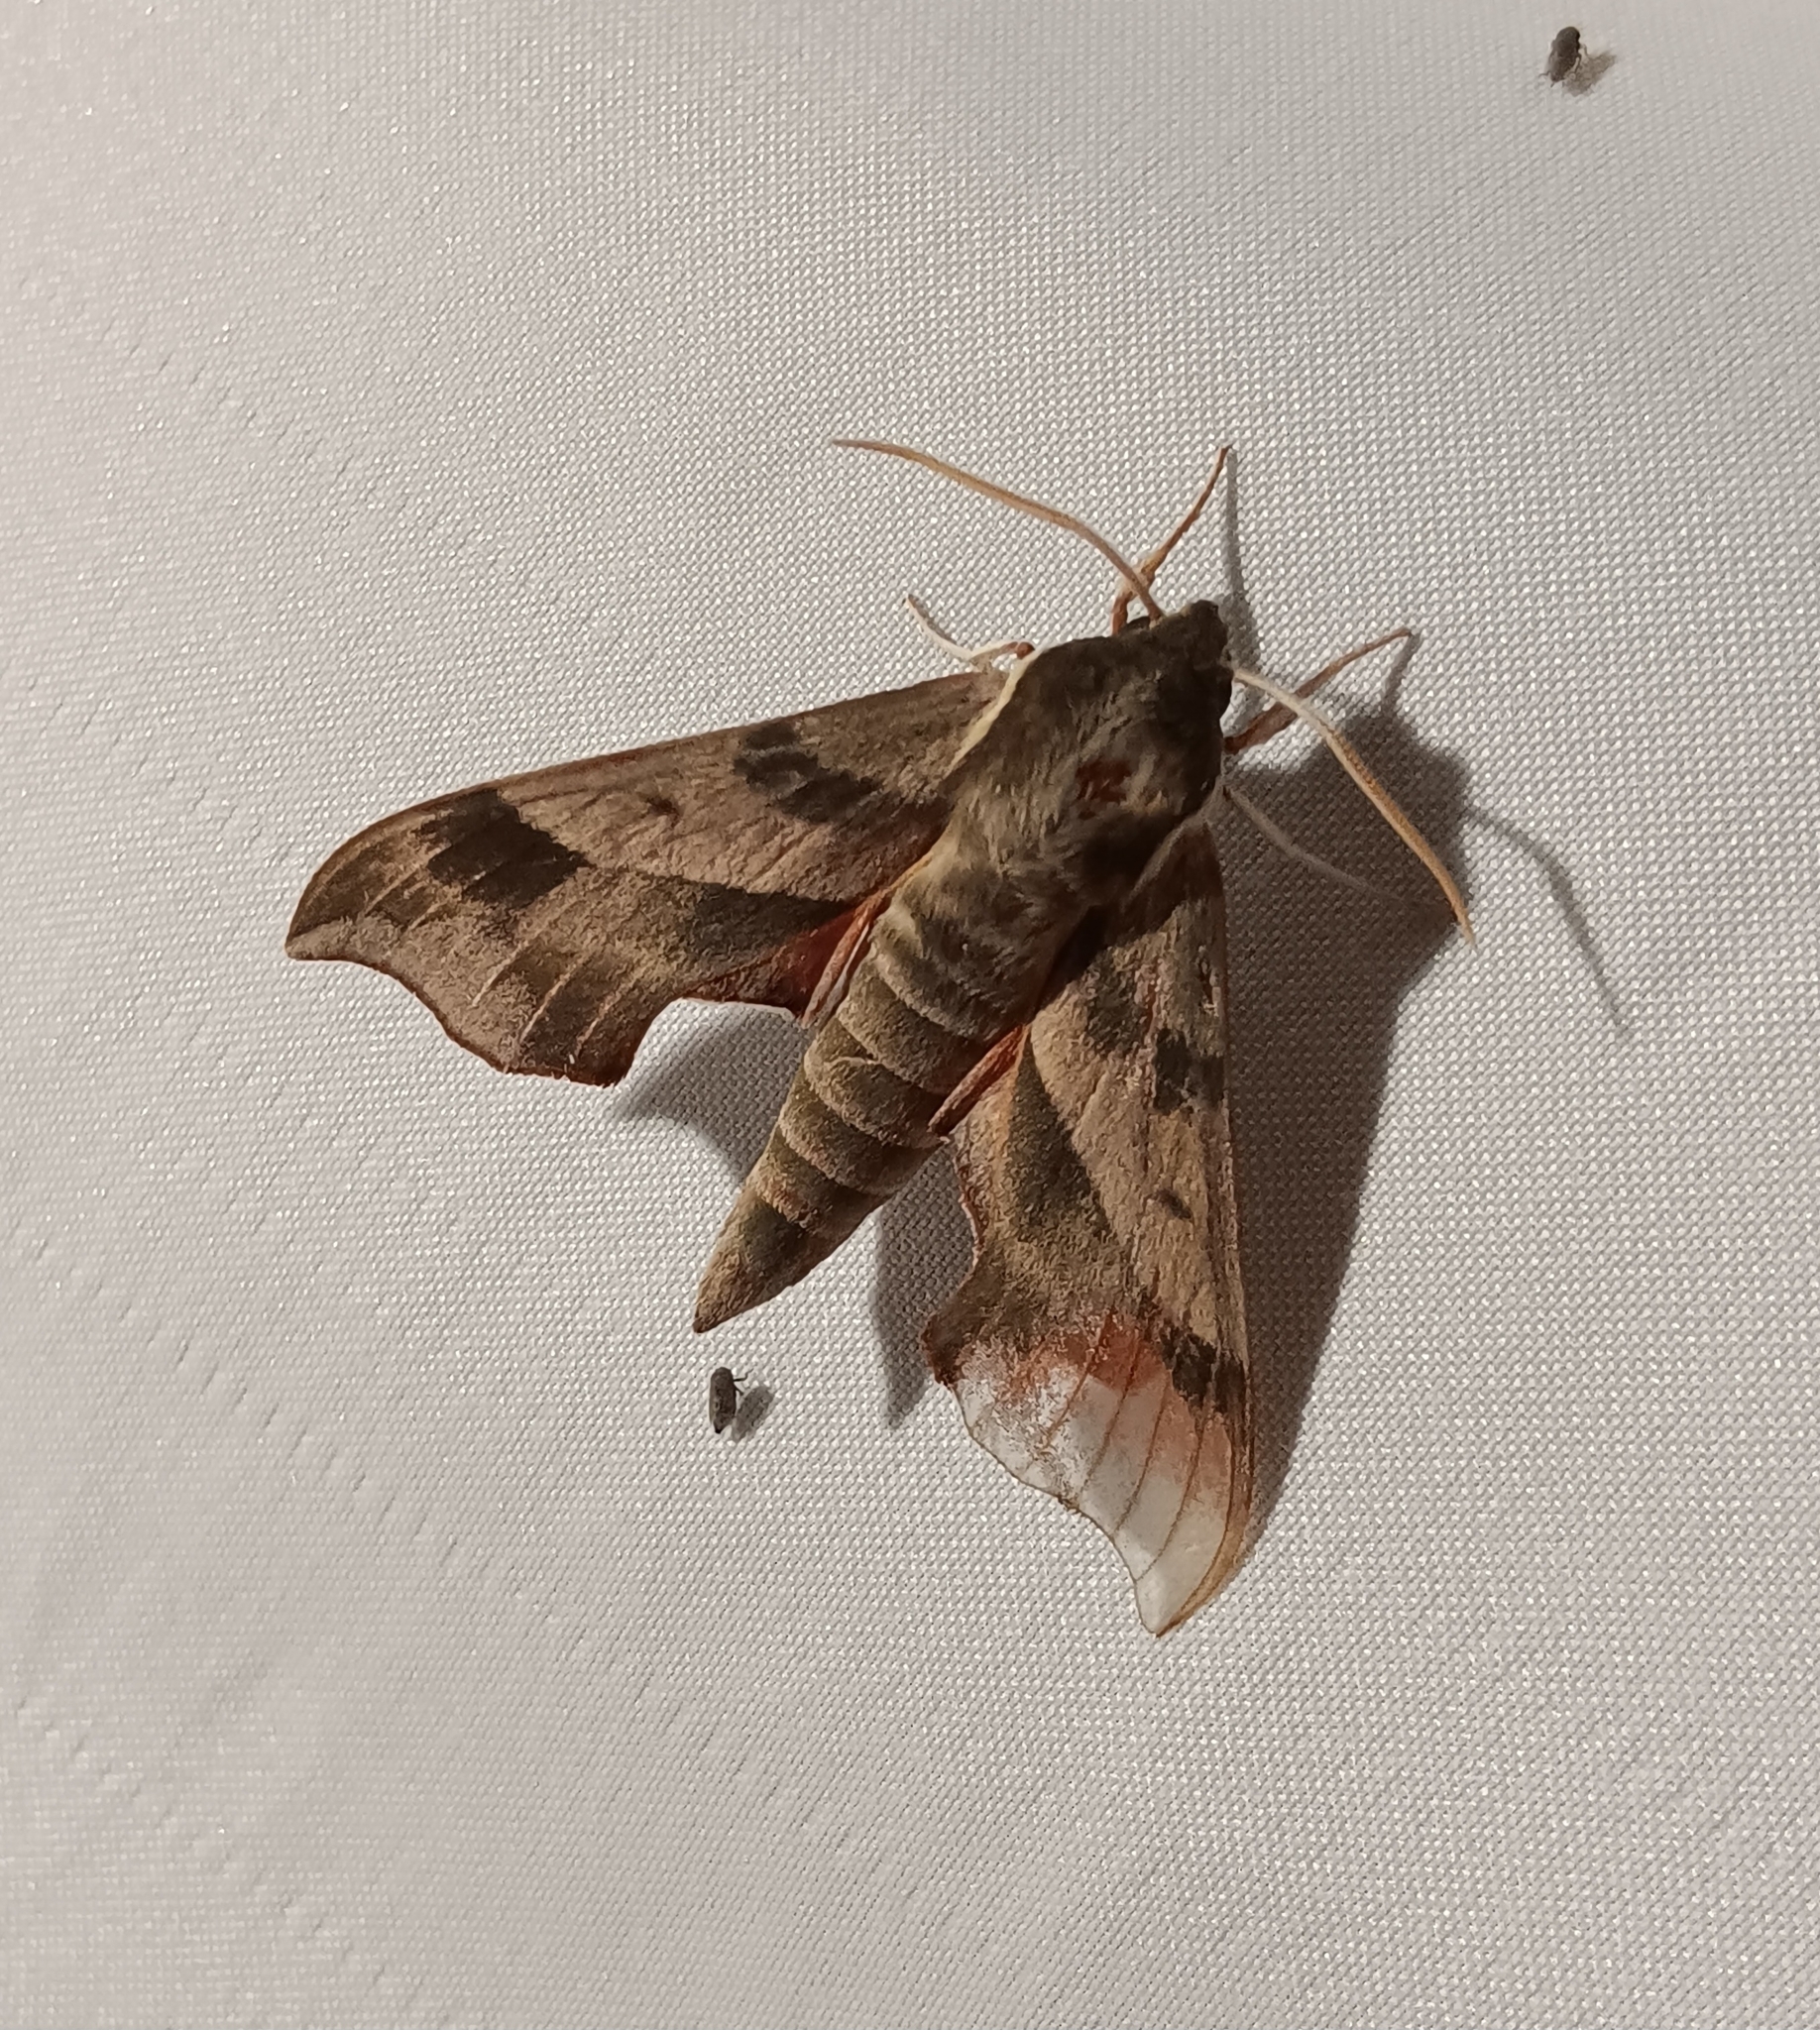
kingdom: Animalia
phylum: Arthropoda
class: Insecta
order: Lepidoptera
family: Sphingidae
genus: Darapsa
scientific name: Darapsa myron
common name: Hog sphinx
